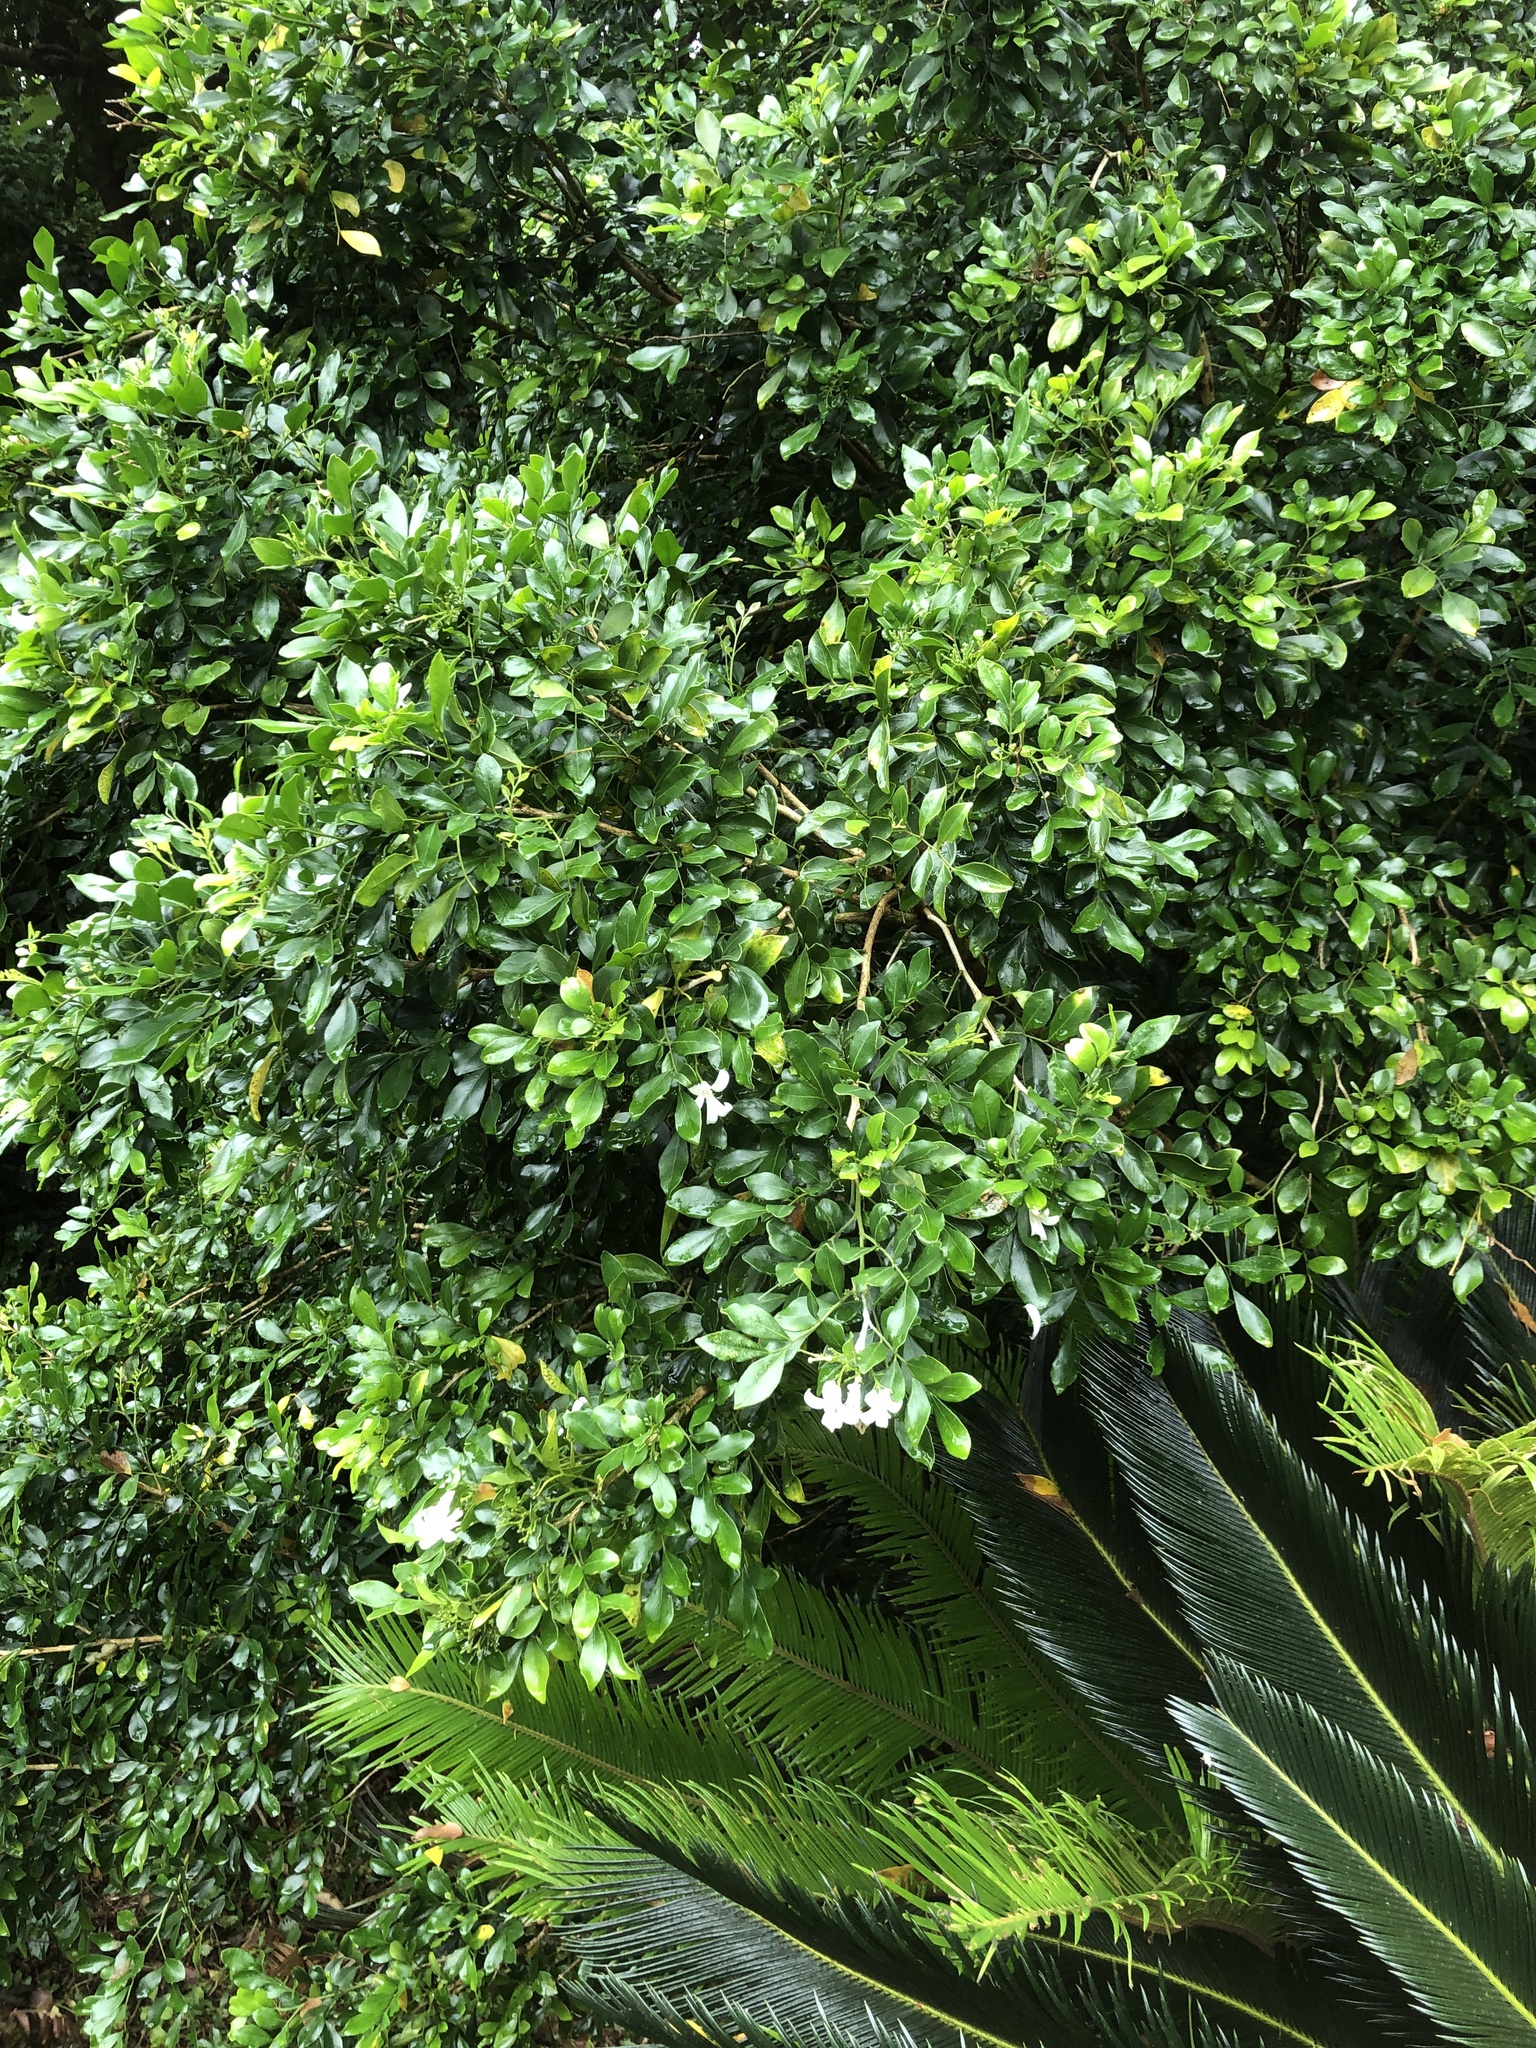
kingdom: Plantae
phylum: Tracheophyta
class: Magnoliopsida
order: Sapindales
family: Rutaceae
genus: Murraya
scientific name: Murraya paniculata
